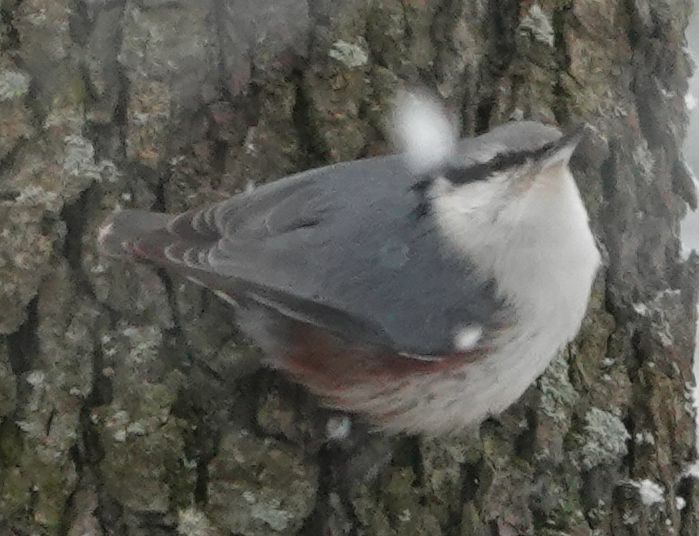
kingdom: Animalia
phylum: Chordata
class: Aves
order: Passeriformes
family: Sittidae
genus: Sitta
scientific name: Sitta europaea
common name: Eurasian nuthatch
